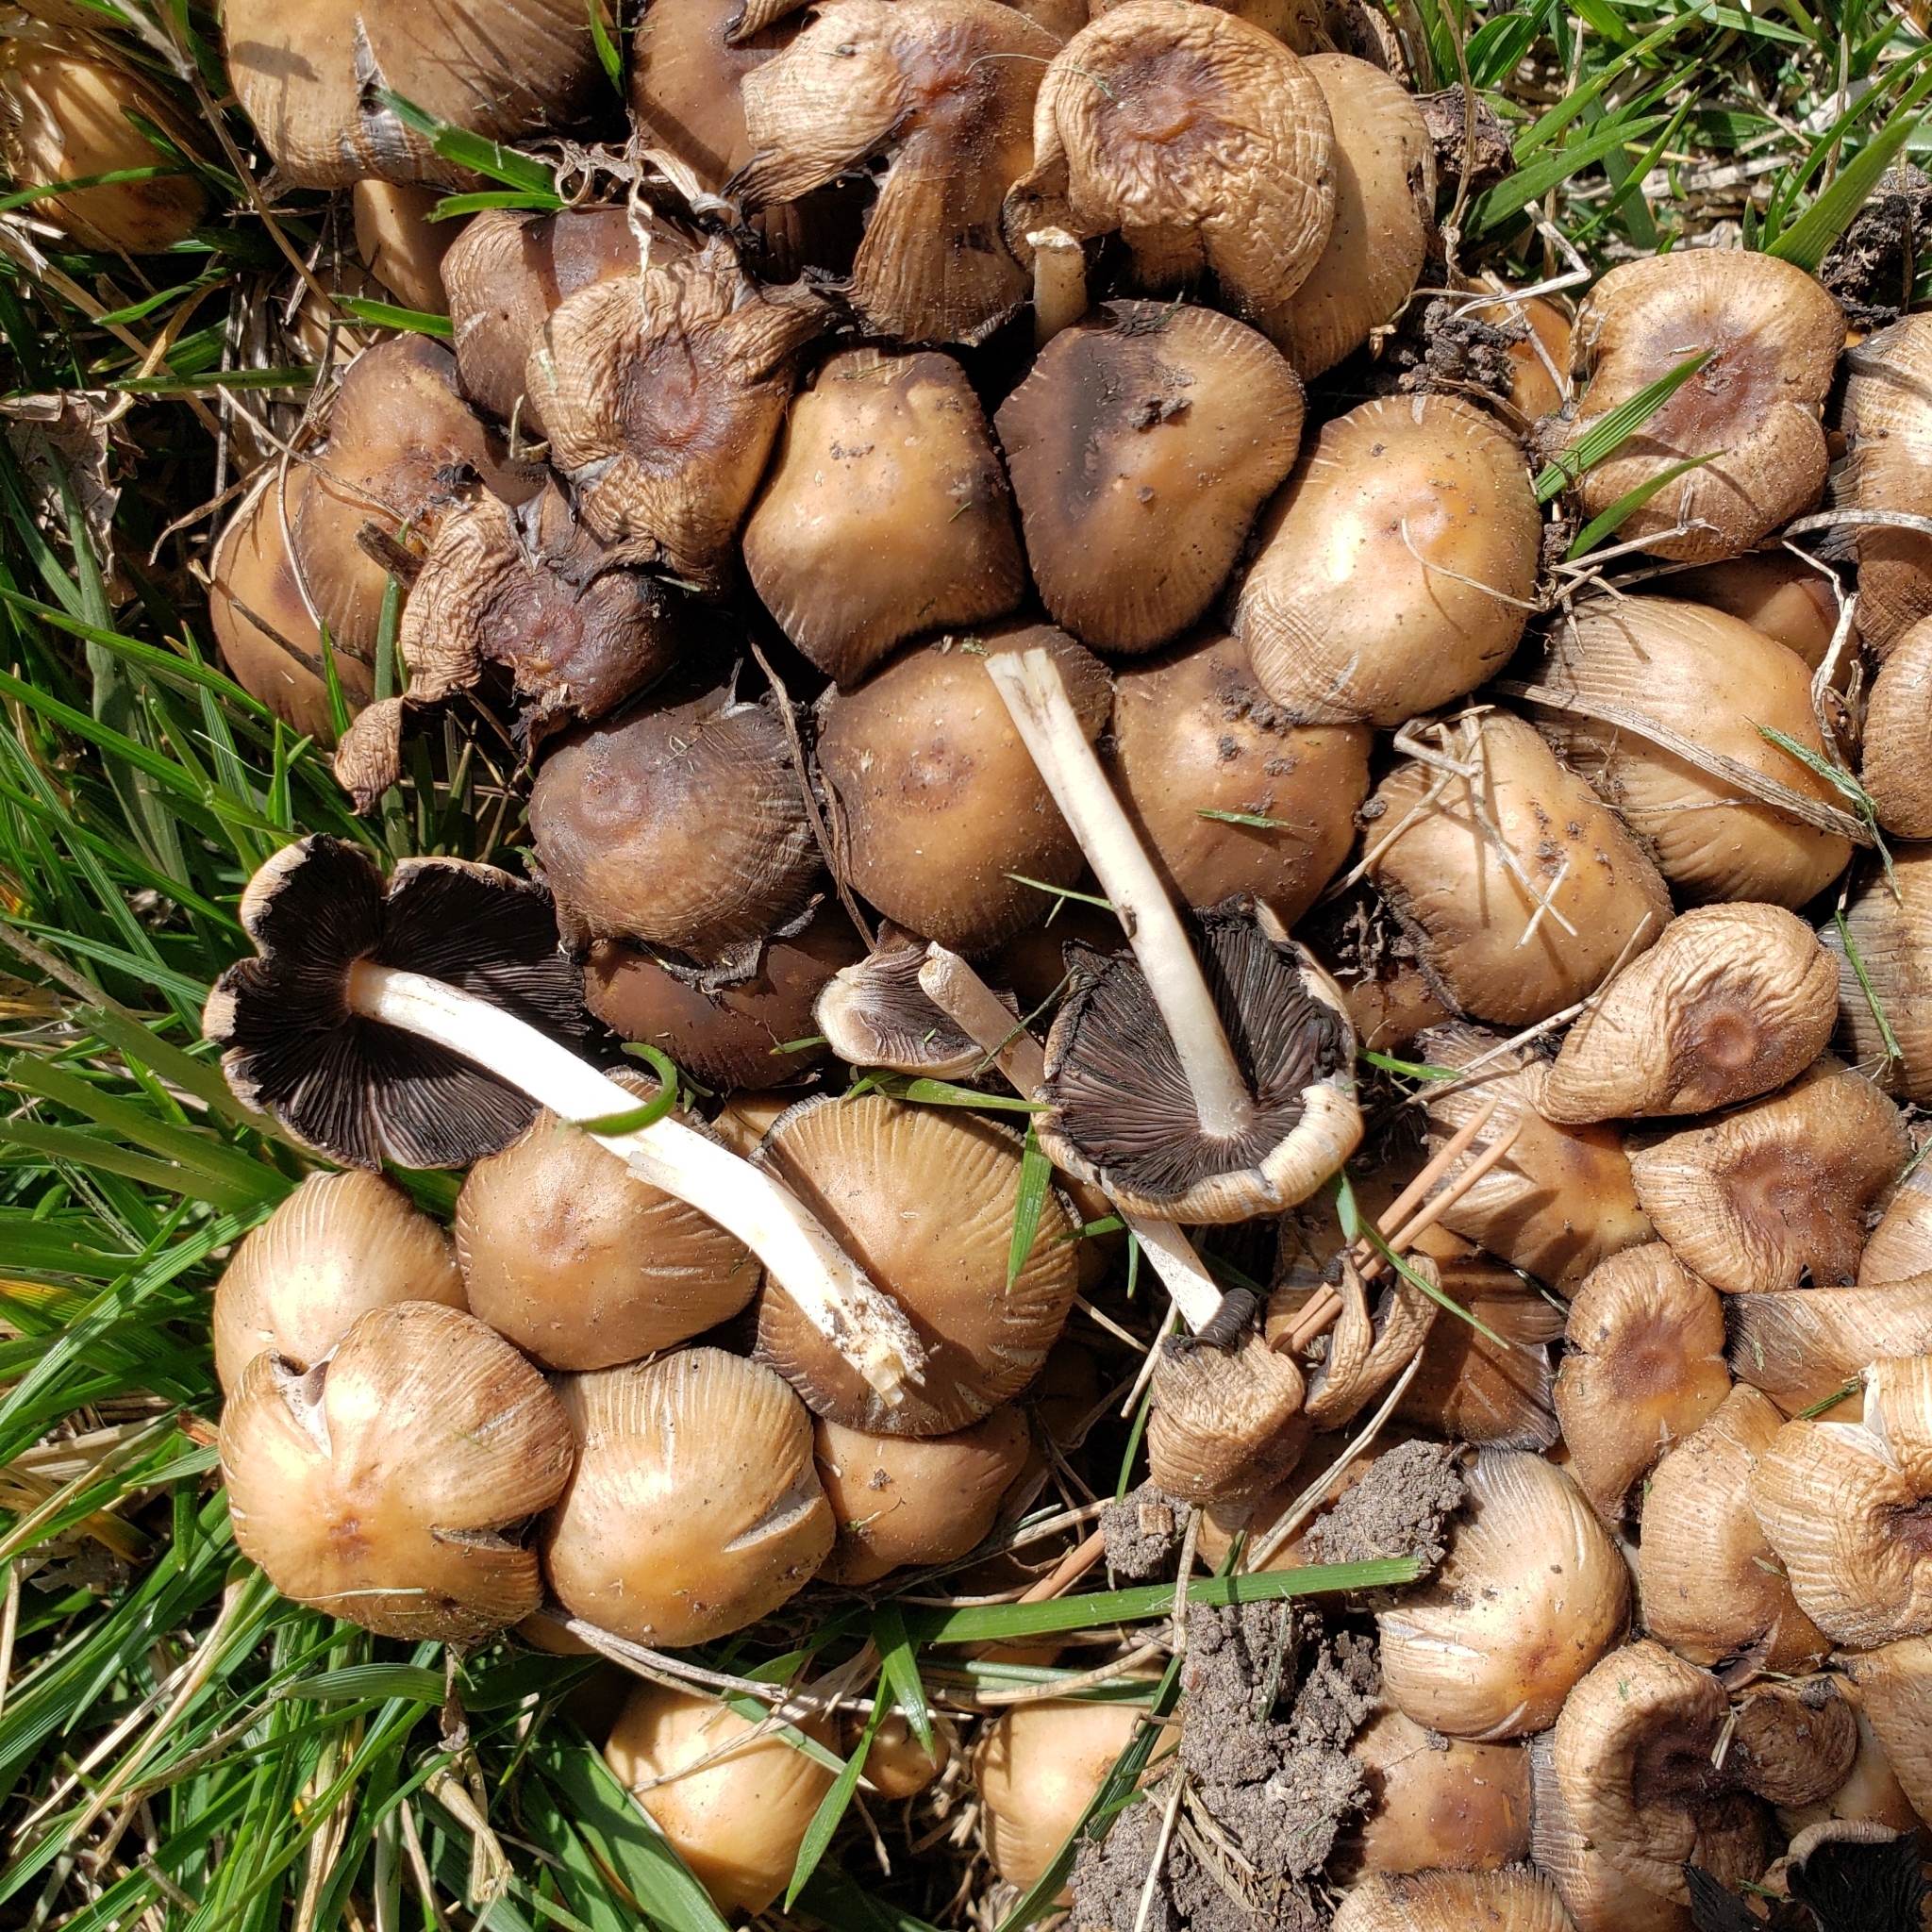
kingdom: Fungi
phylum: Basidiomycota
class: Agaricomycetes
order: Agaricales
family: Psathyrellaceae
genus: Coprinopsis
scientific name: Coprinopsis atramentaria
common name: Common ink-cap
